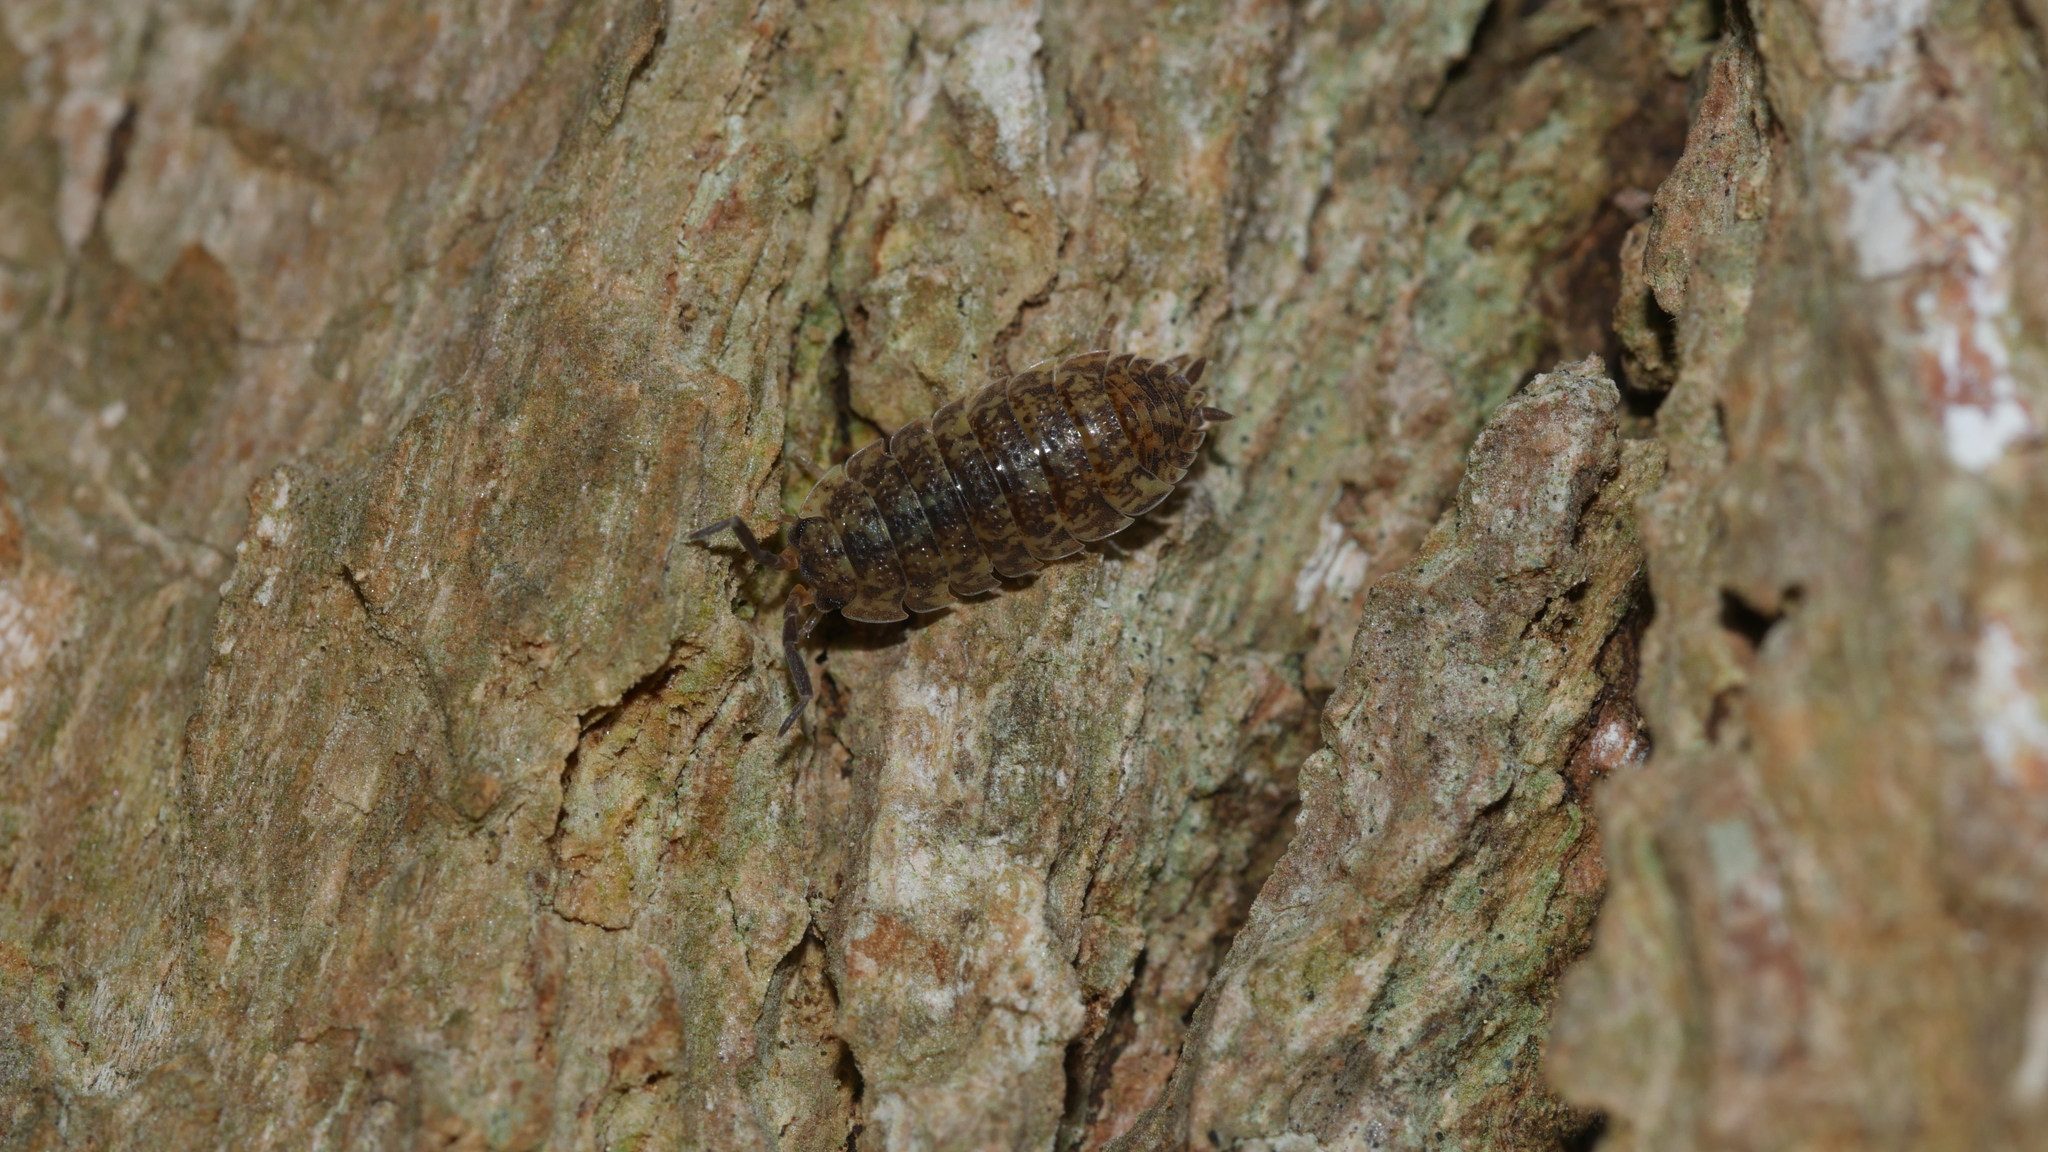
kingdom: Animalia
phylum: Arthropoda
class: Malacostraca
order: Isopoda
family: Porcellionidae
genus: Porcellio
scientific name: Porcellio scaber
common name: Common rough woodlouse
